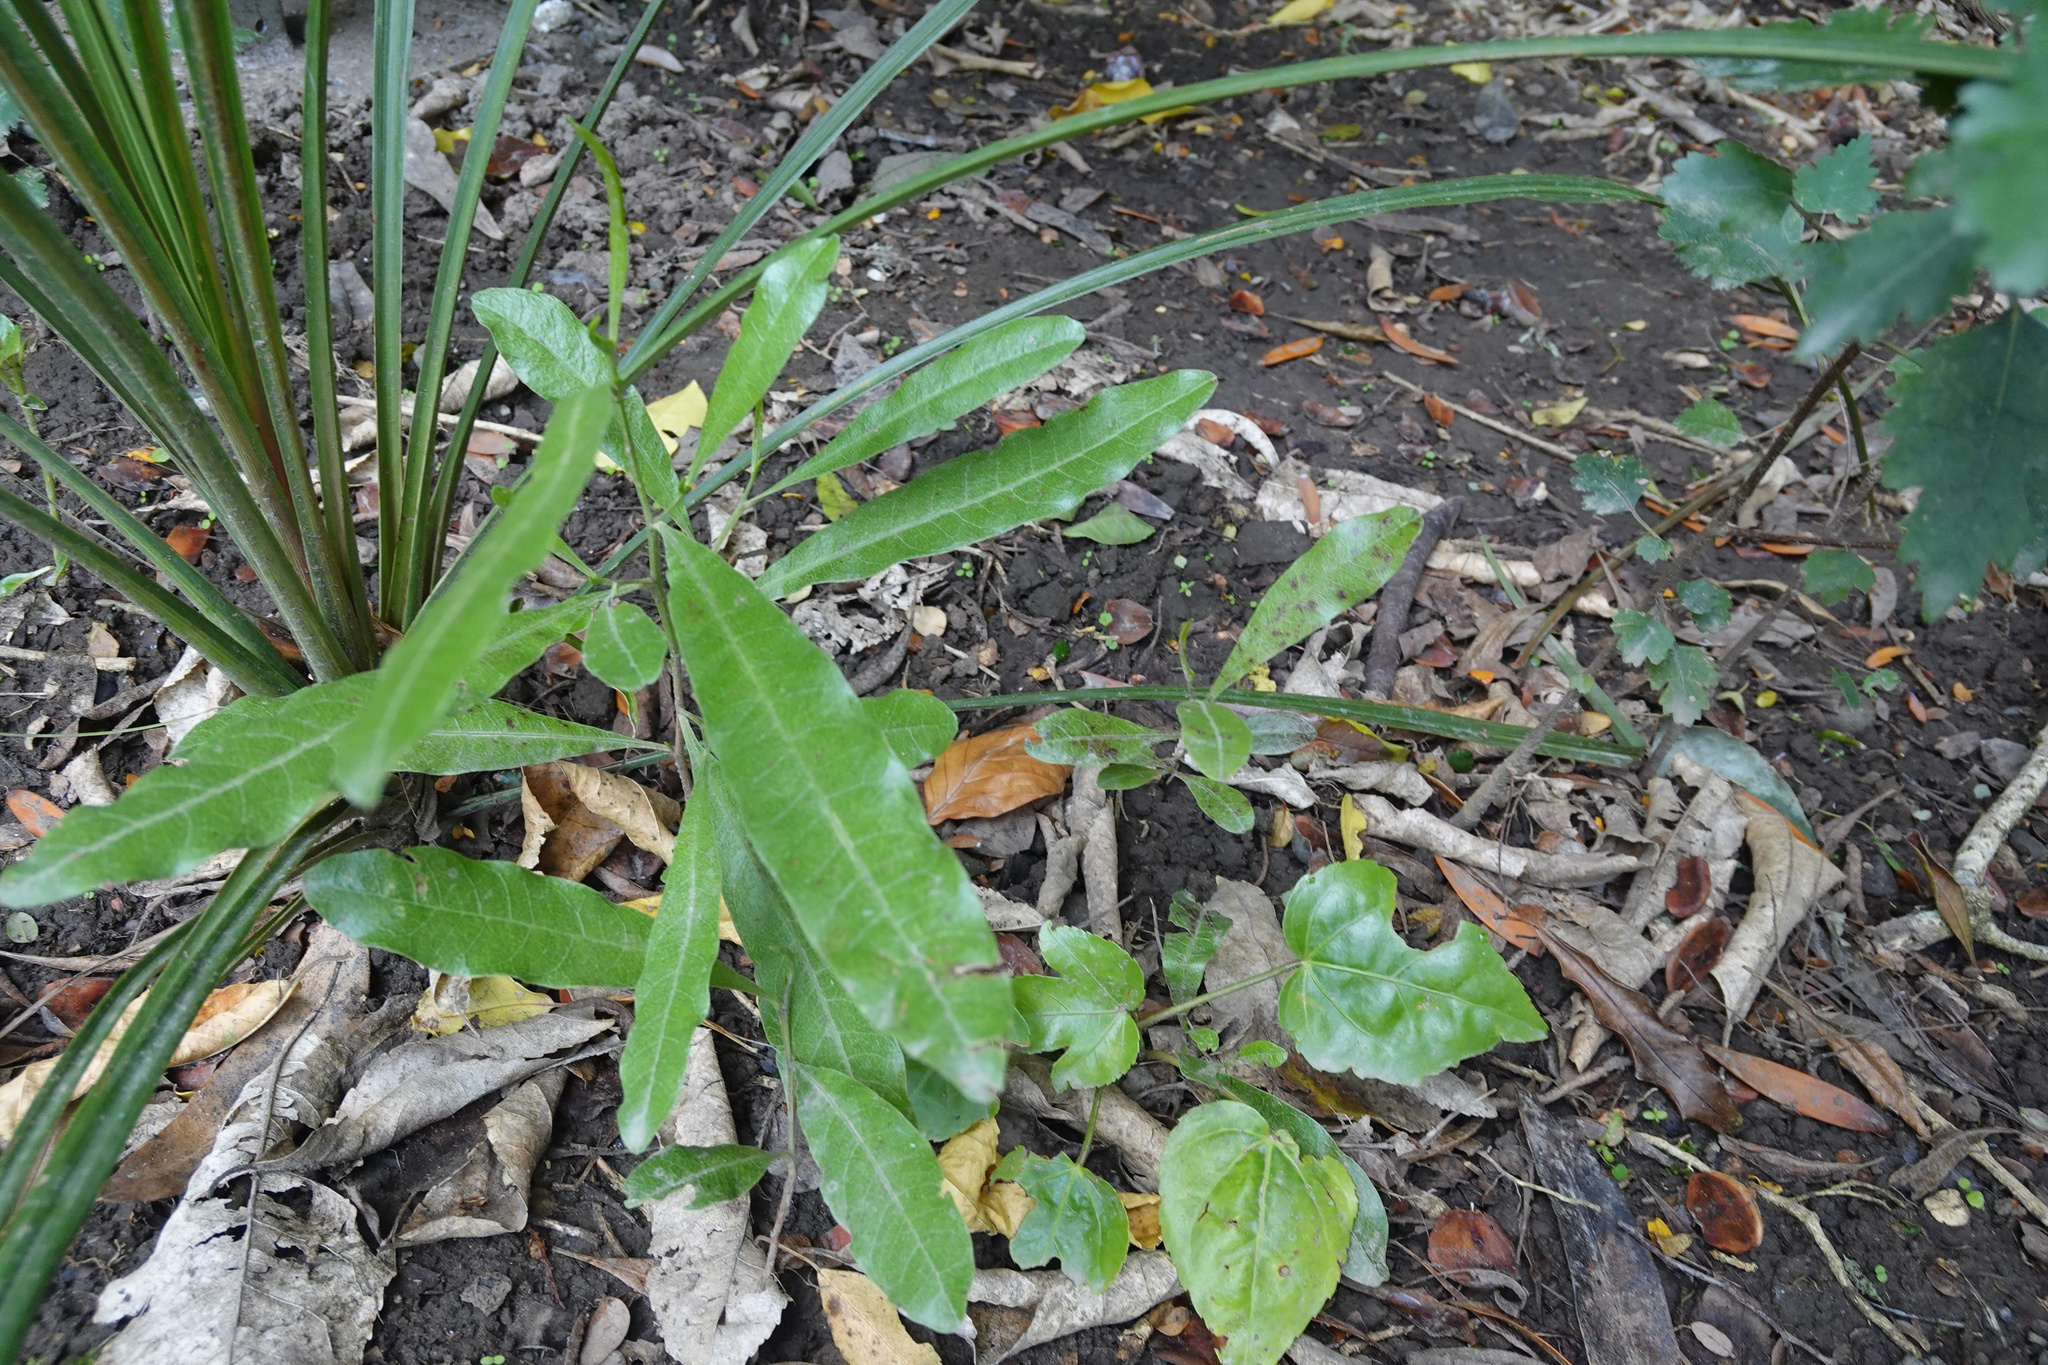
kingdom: Plantae
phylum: Tracheophyta
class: Magnoliopsida
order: Sapindales
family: Sapindaceae
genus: Dodonaea
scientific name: Dodonaea viscosa
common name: Hopbush
